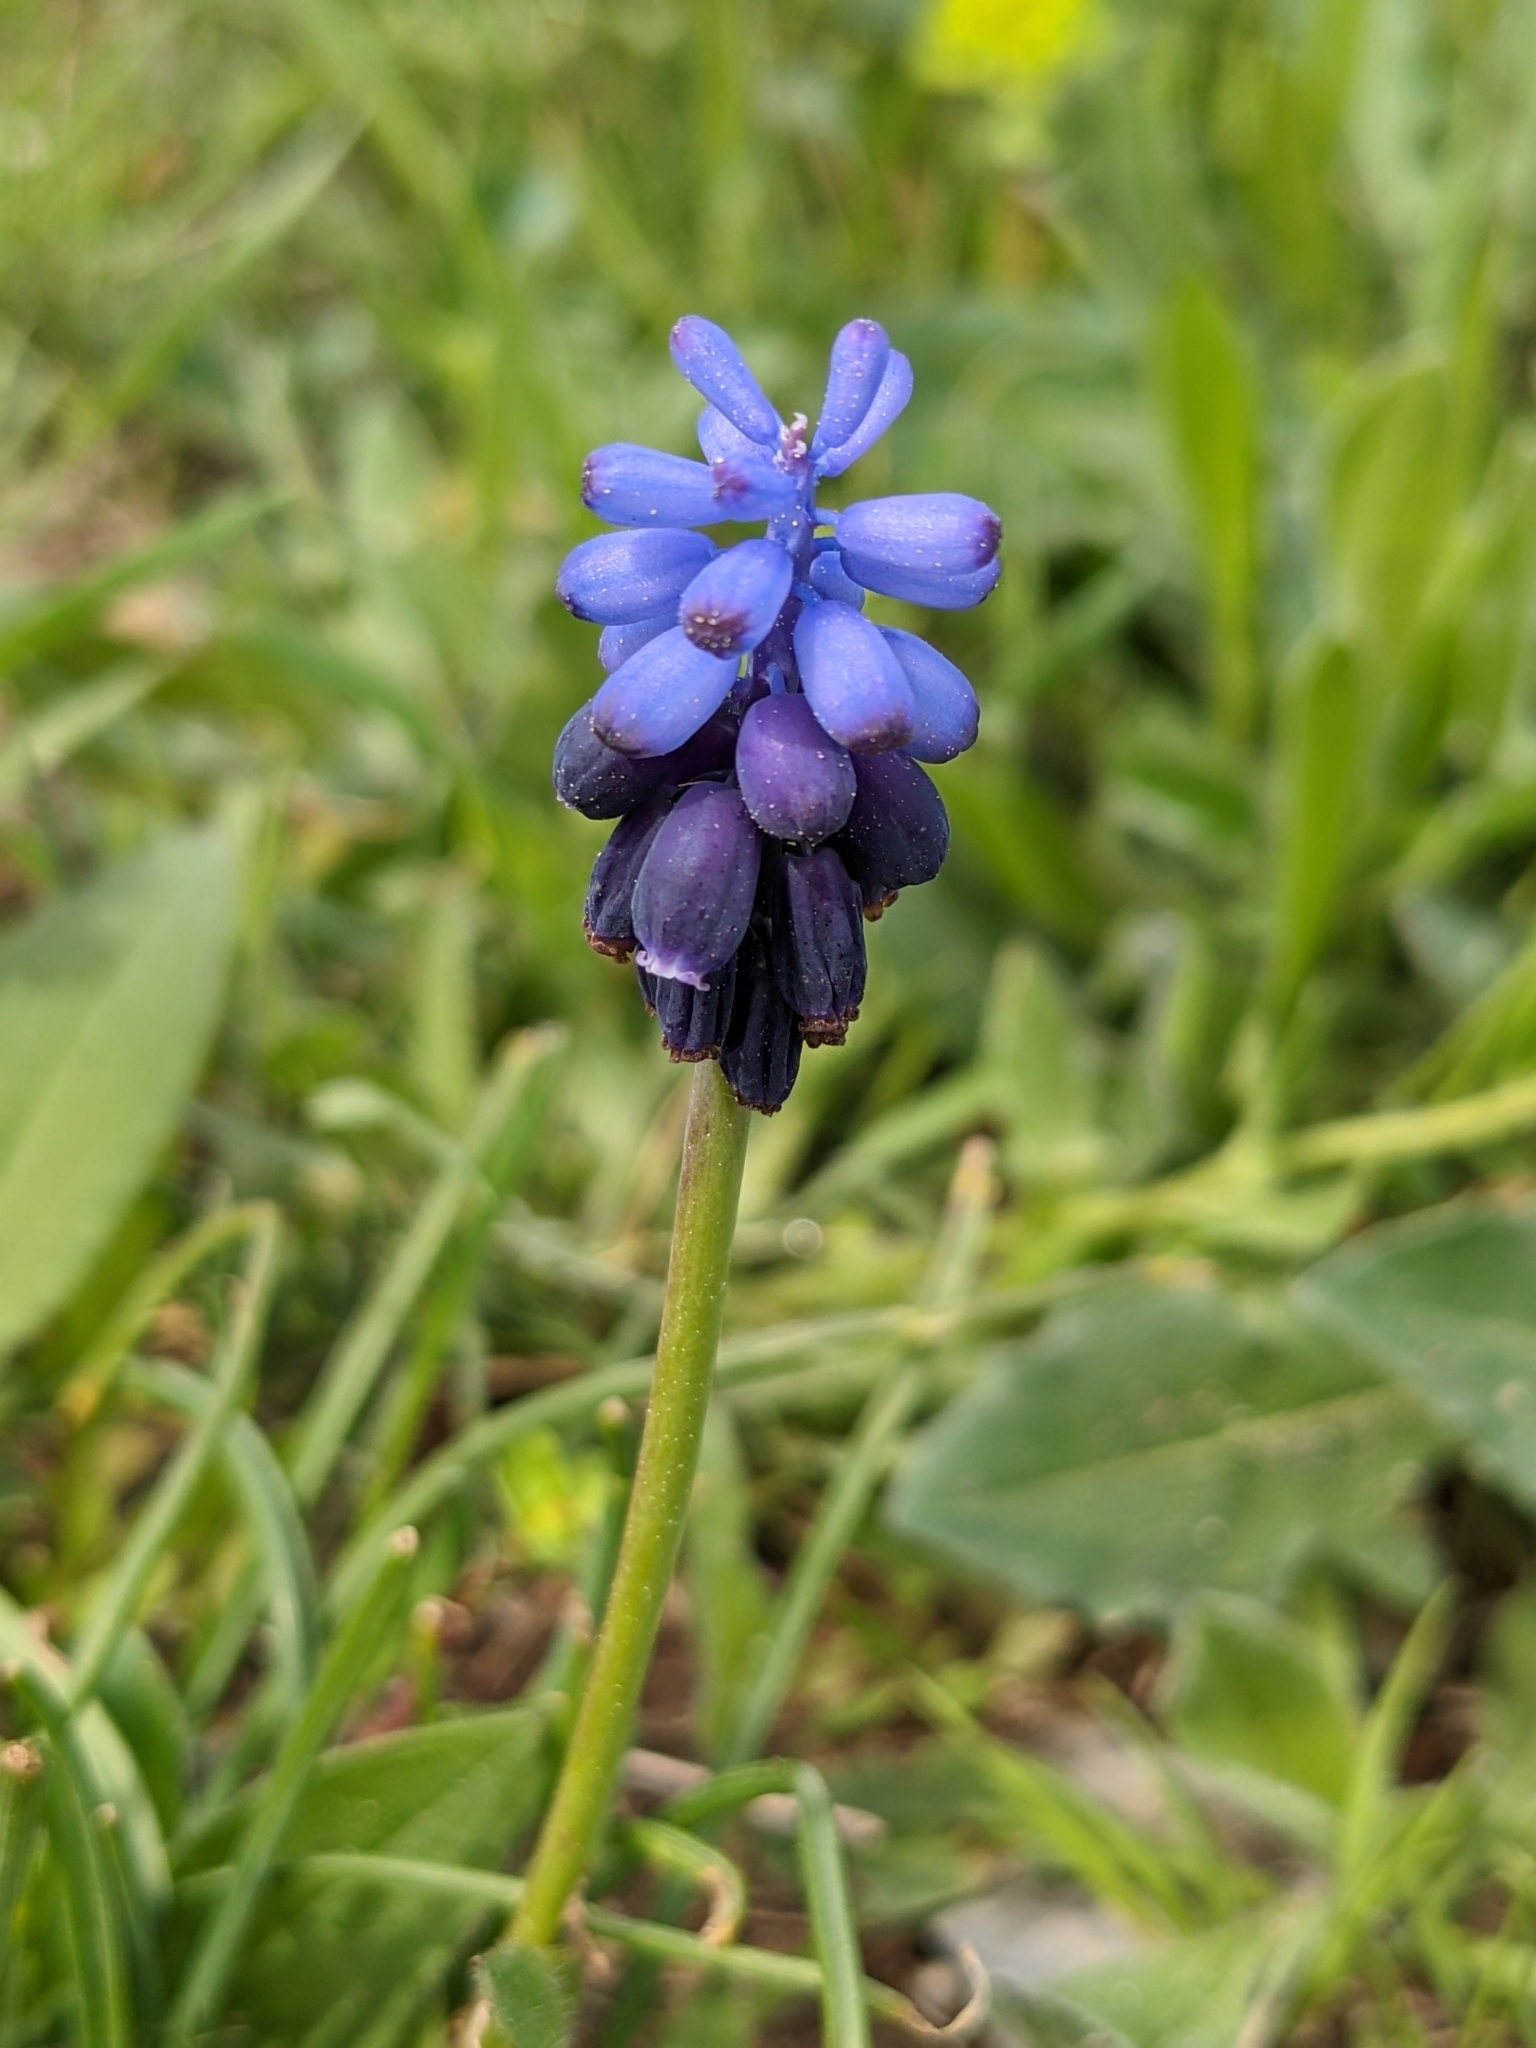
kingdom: Plantae
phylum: Tracheophyta
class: Liliopsida
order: Asparagales
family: Asparagaceae
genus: Muscari
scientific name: Muscari neglectum
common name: Grape-hyacinth
